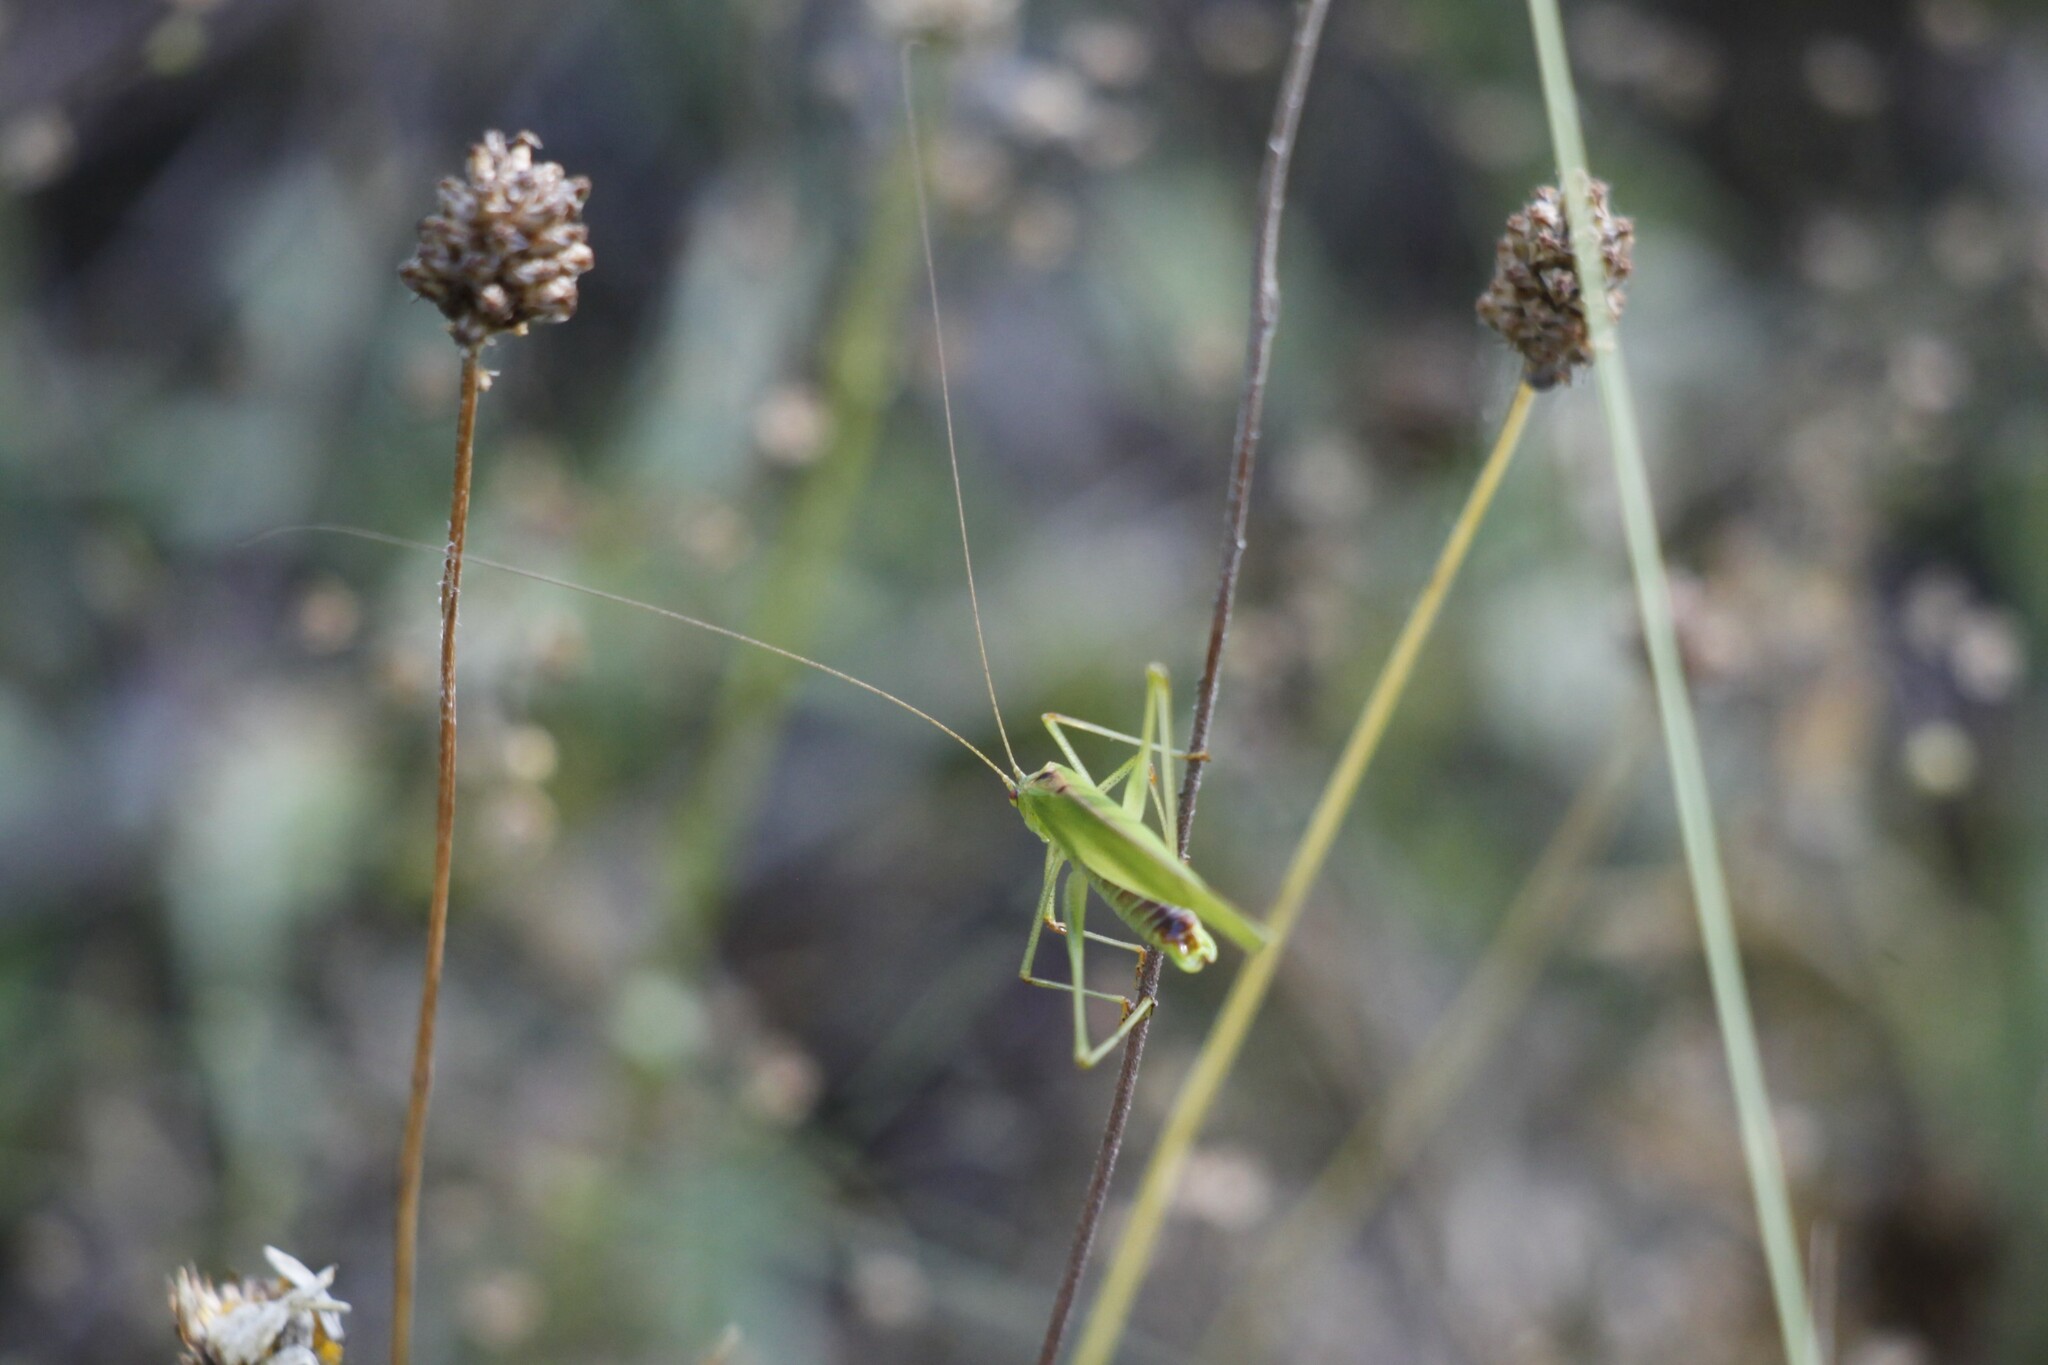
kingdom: Animalia
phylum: Arthropoda
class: Insecta
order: Orthoptera
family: Tettigoniidae
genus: Phaneroptera
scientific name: Phaneroptera falcata
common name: Sickle-bearing bush-cricket
